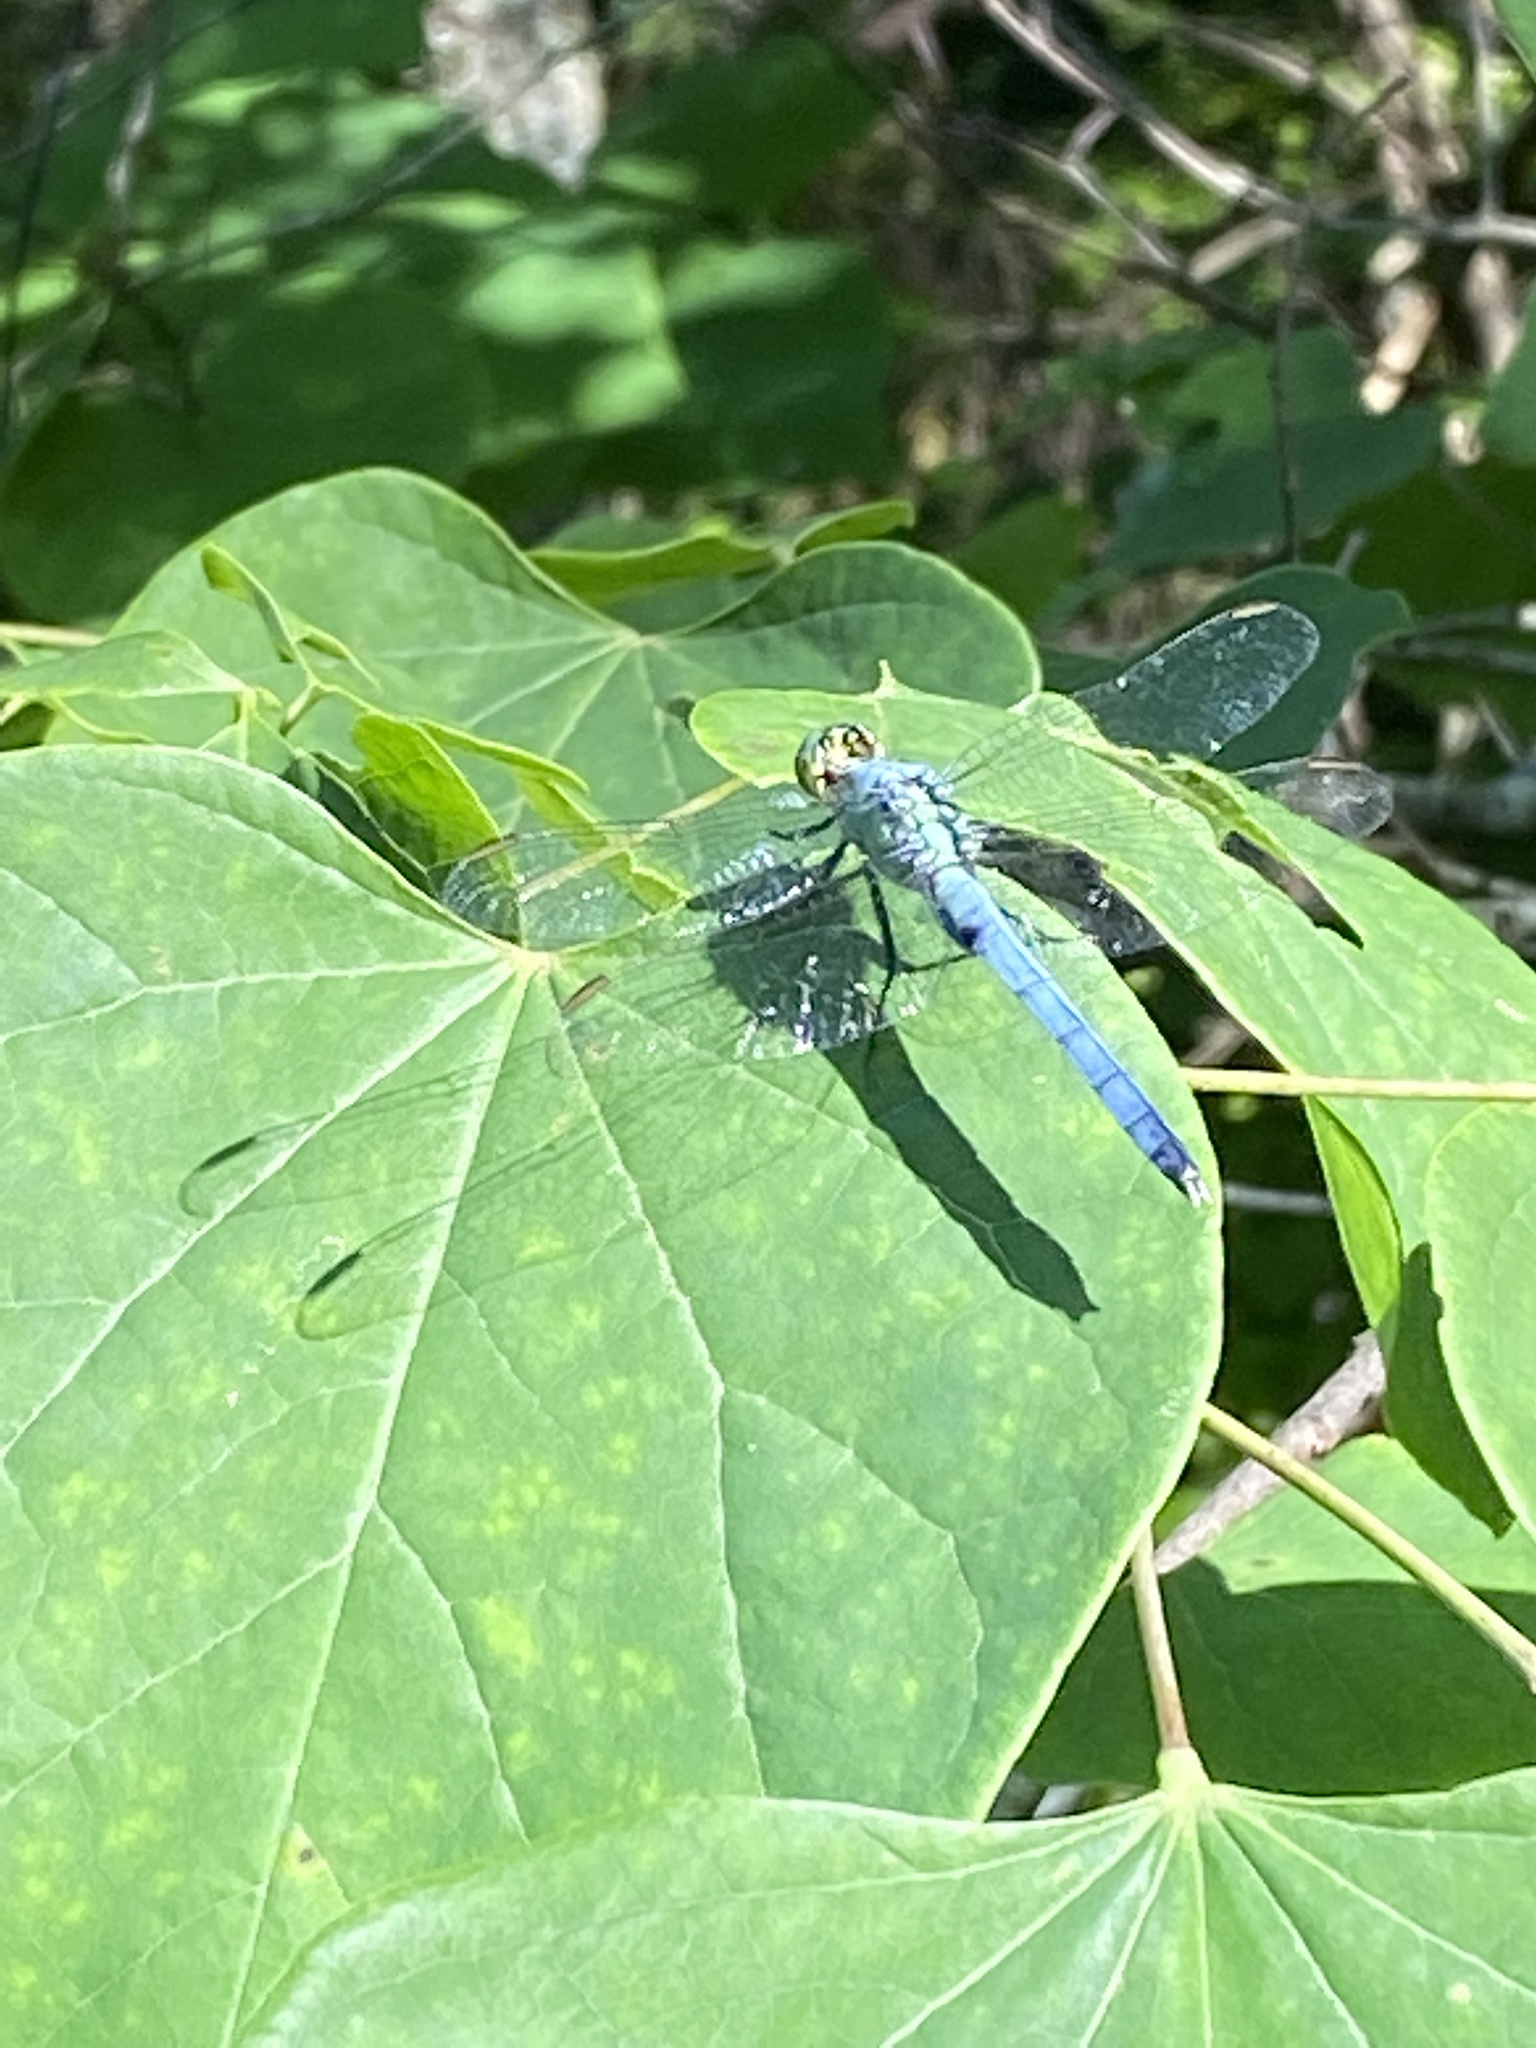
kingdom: Animalia
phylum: Arthropoda
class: Insecta
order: Odonata
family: Libellulidae
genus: Erythemis
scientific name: Erythemis simplicicollis
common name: Eastern pondhawk
